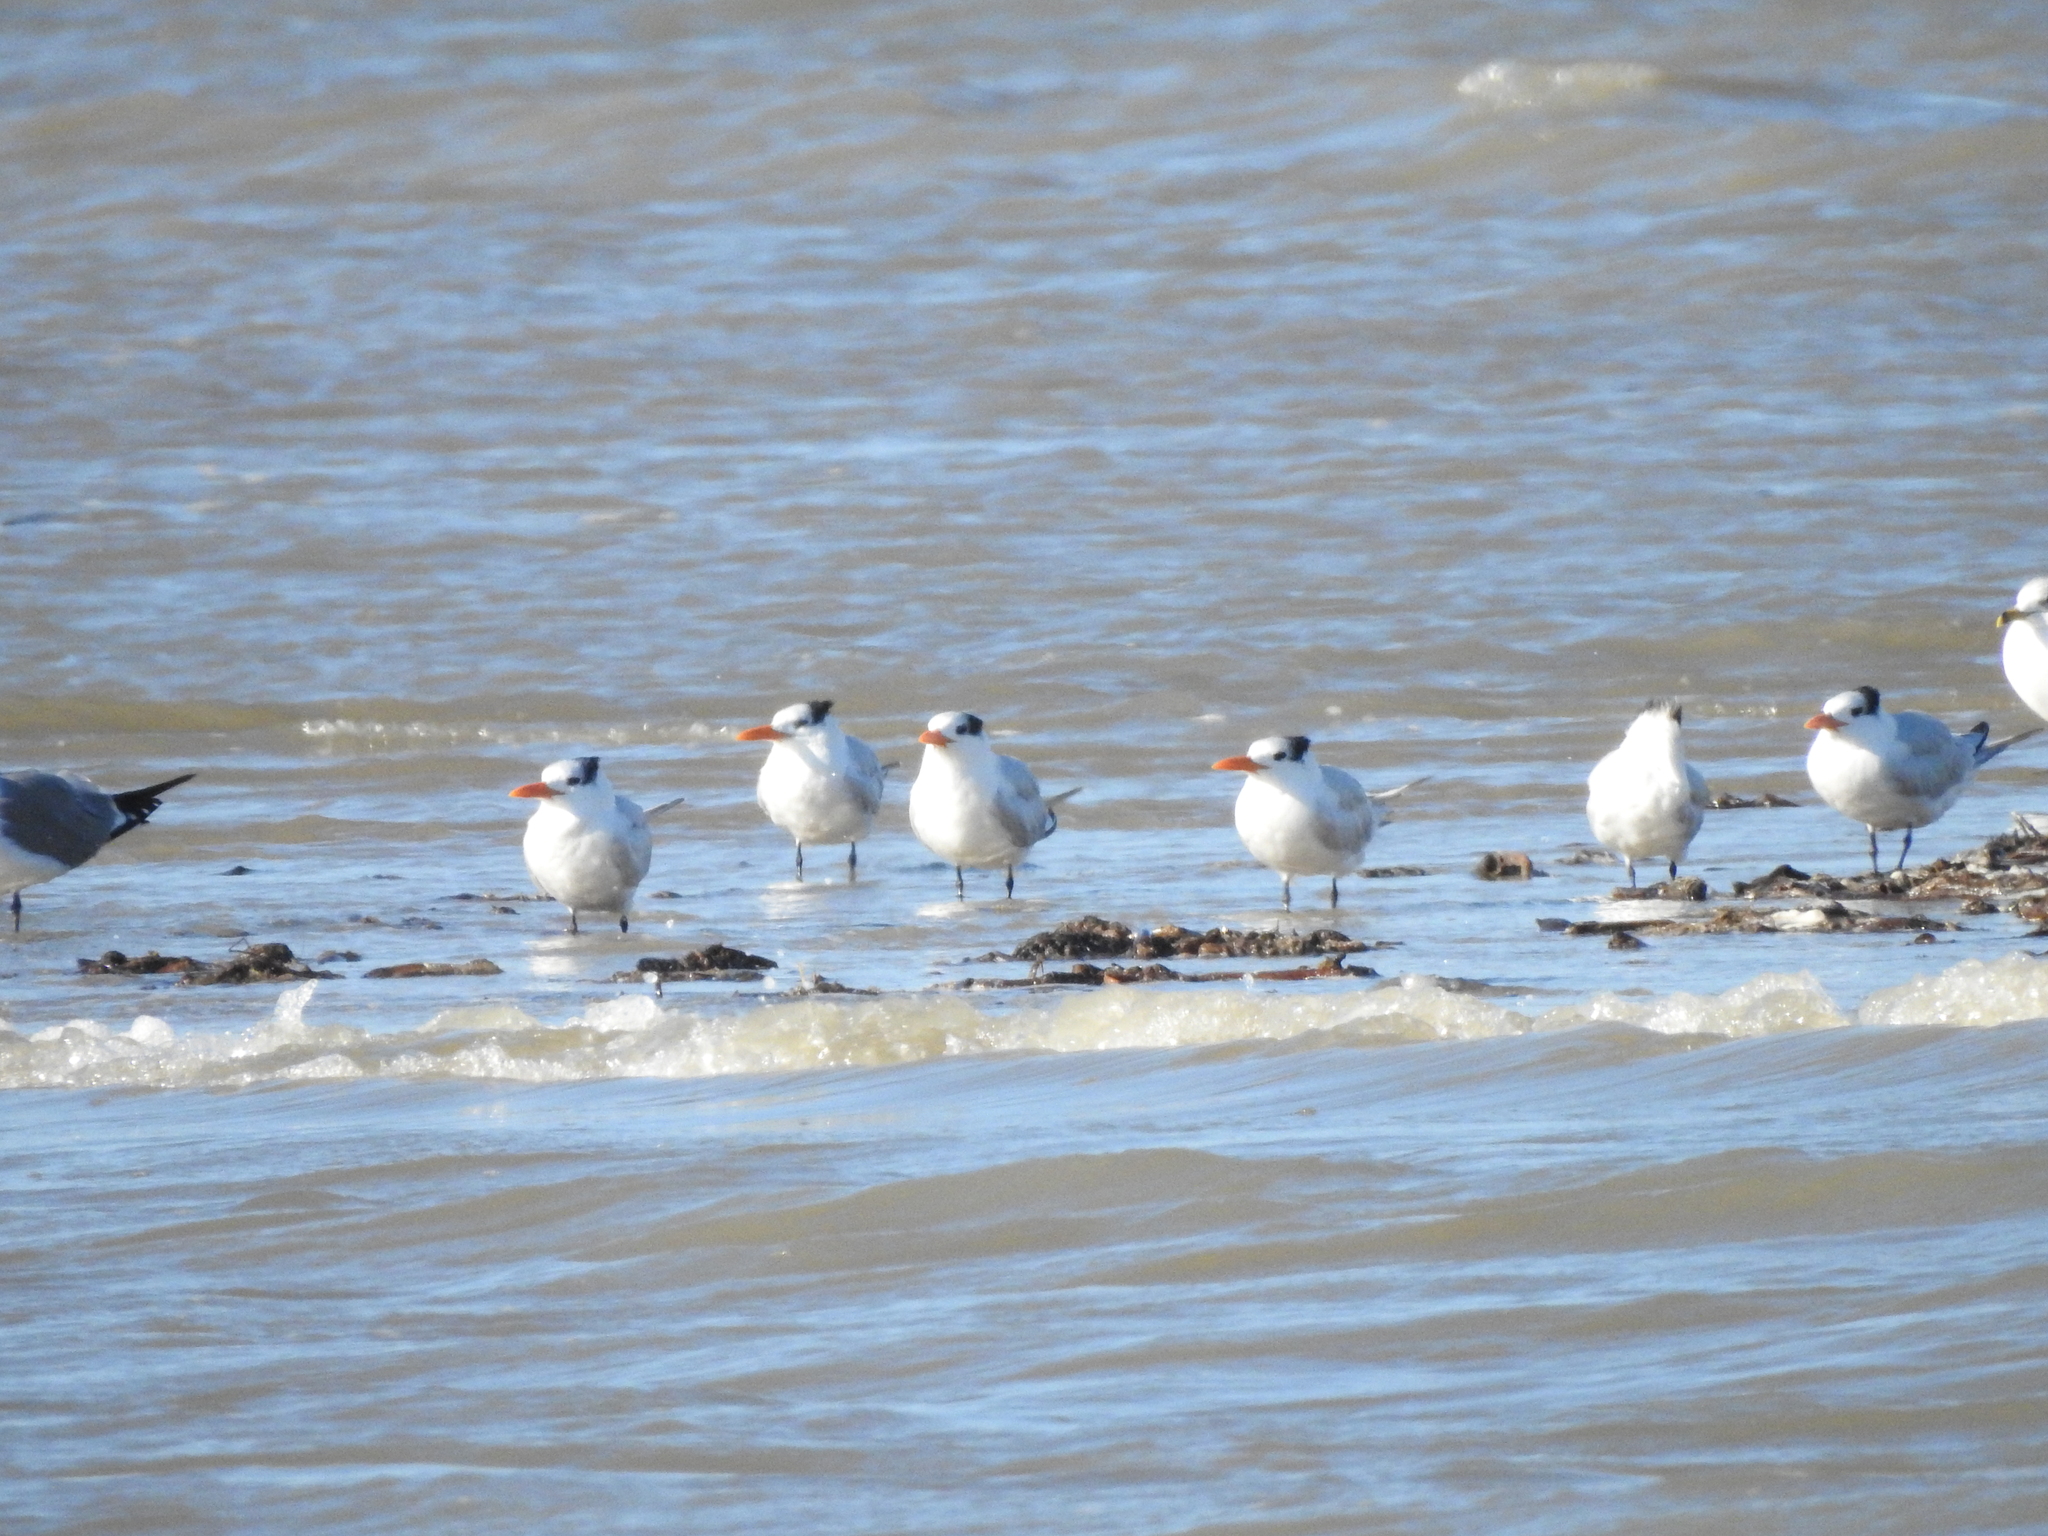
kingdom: Animalia
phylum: Chordata
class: Aves
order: Charadriiformes
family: Laridae
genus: Thalasseus
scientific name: Thalasseus maximus
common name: Royal tern
